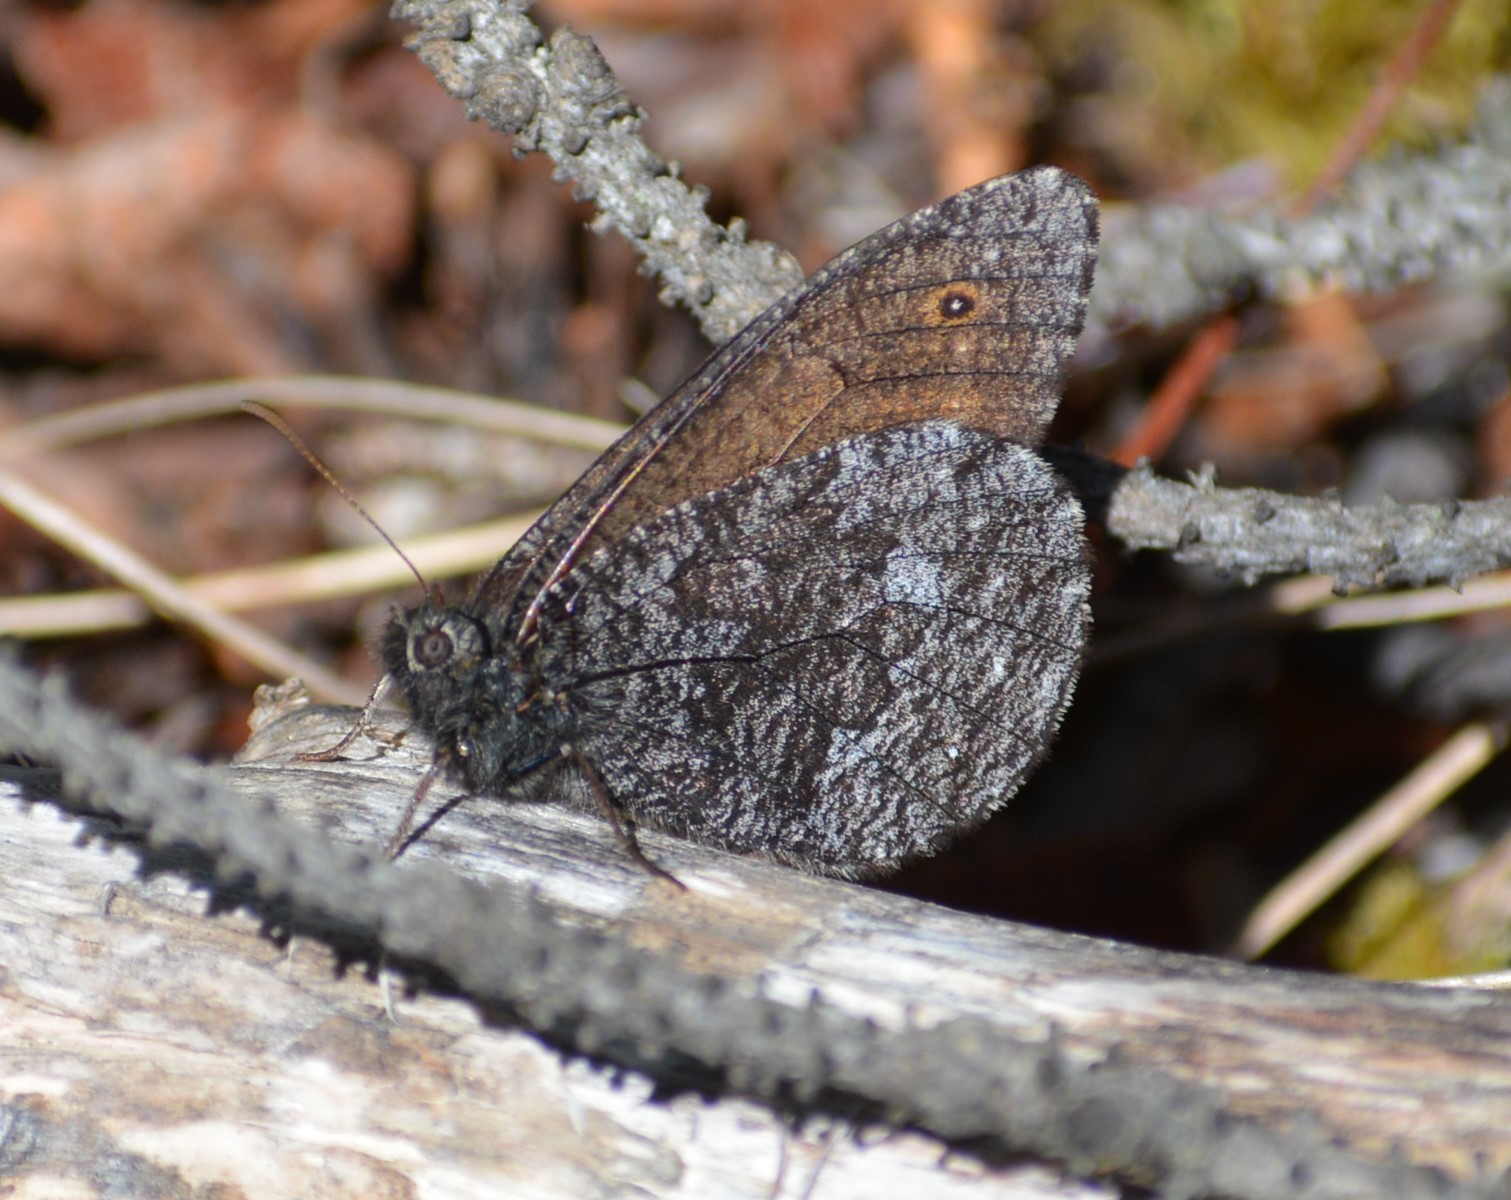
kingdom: Animalia
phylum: Arthropoda
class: Insecta
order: Lepidoptera
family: Nymphalidae
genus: Oeneis
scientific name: Oeneis jutta
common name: Baltic grayling
